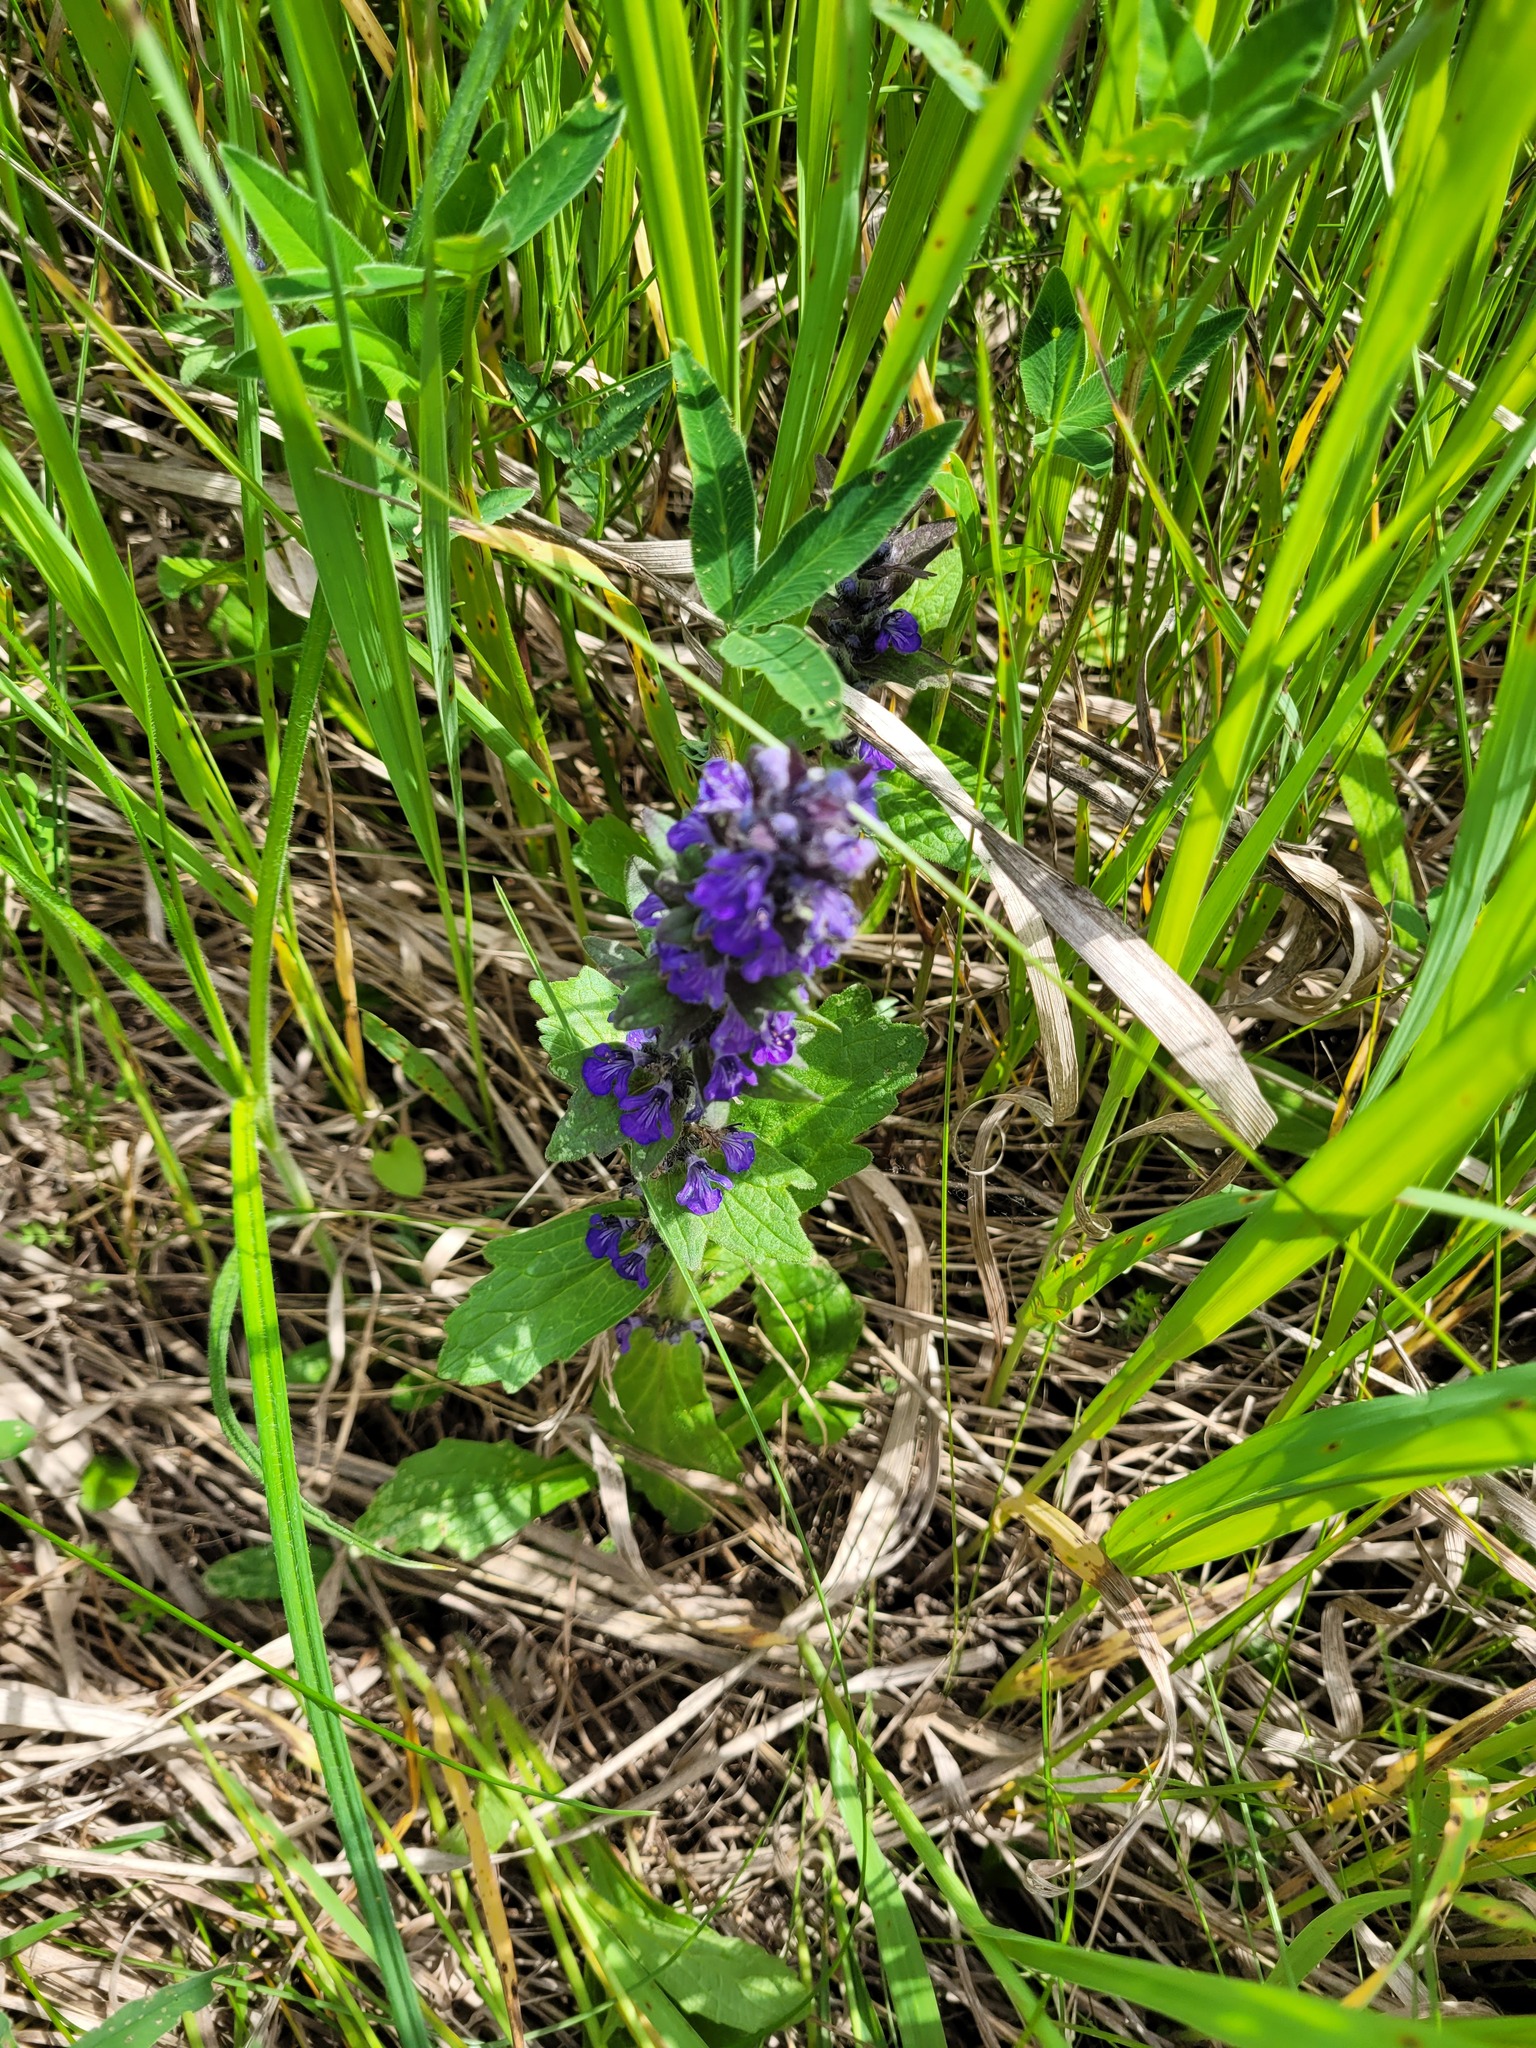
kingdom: Plantae
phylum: Tracheophyta
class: Magnoliopsida
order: Lamiales
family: Lamiaceae
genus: Ajuga
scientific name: Ajuga genevensis
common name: Blue bugle
